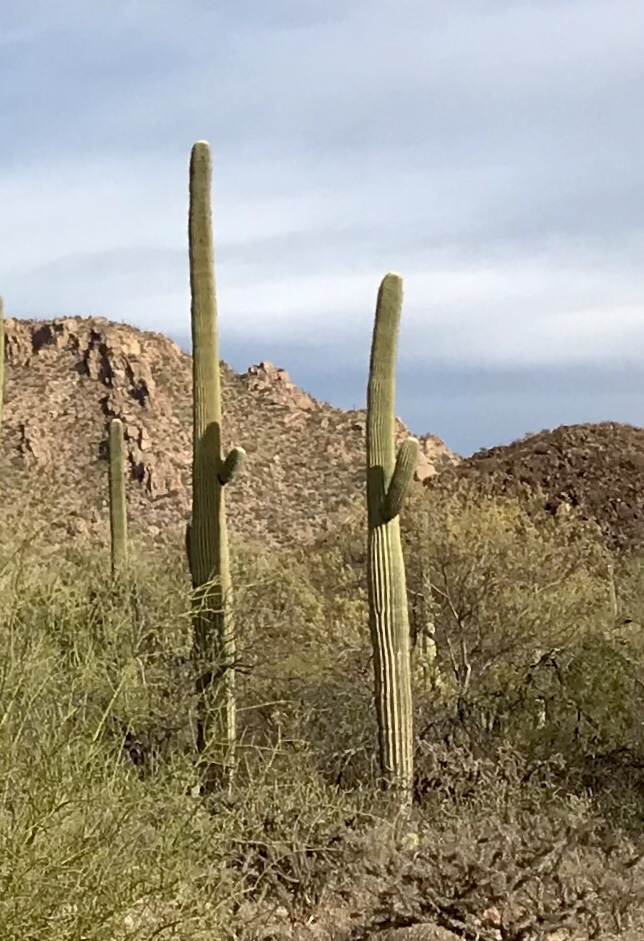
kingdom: Plantae
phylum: Tracheophyta
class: Magnoliopsida
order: Caryophyllales
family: Cactaceae
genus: Carnegiea
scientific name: Carnegiea gigantea
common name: Saguaro
